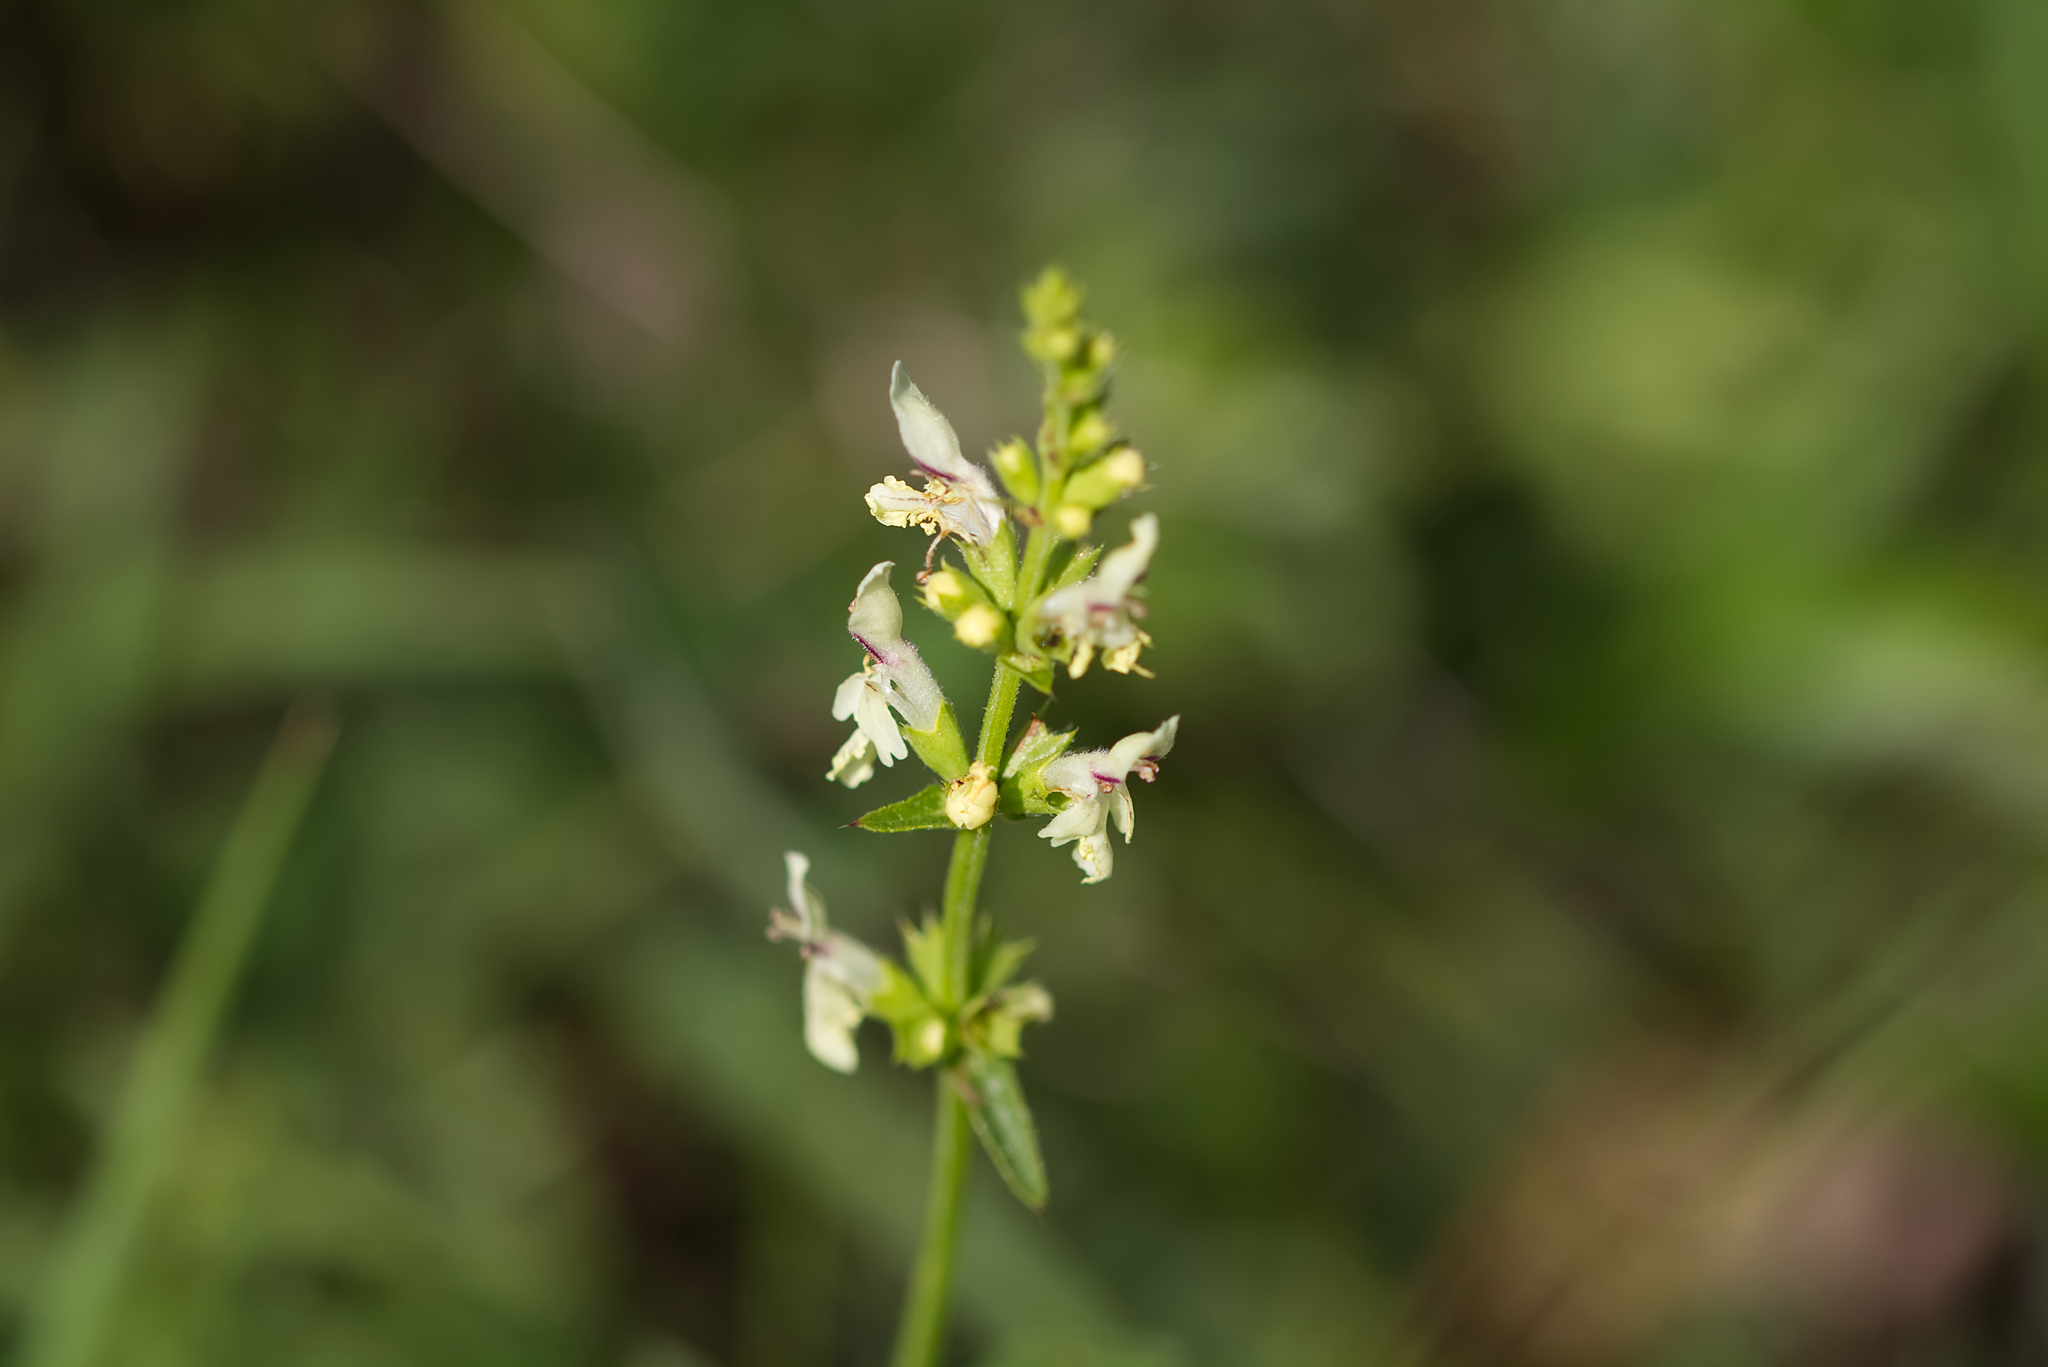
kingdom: Plantae
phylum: Tracheophyta
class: Magnoliopsida
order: Lamiales
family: Lamiaceae
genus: Stachys
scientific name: Stachys recta
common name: Perennial yellow-woundwort
